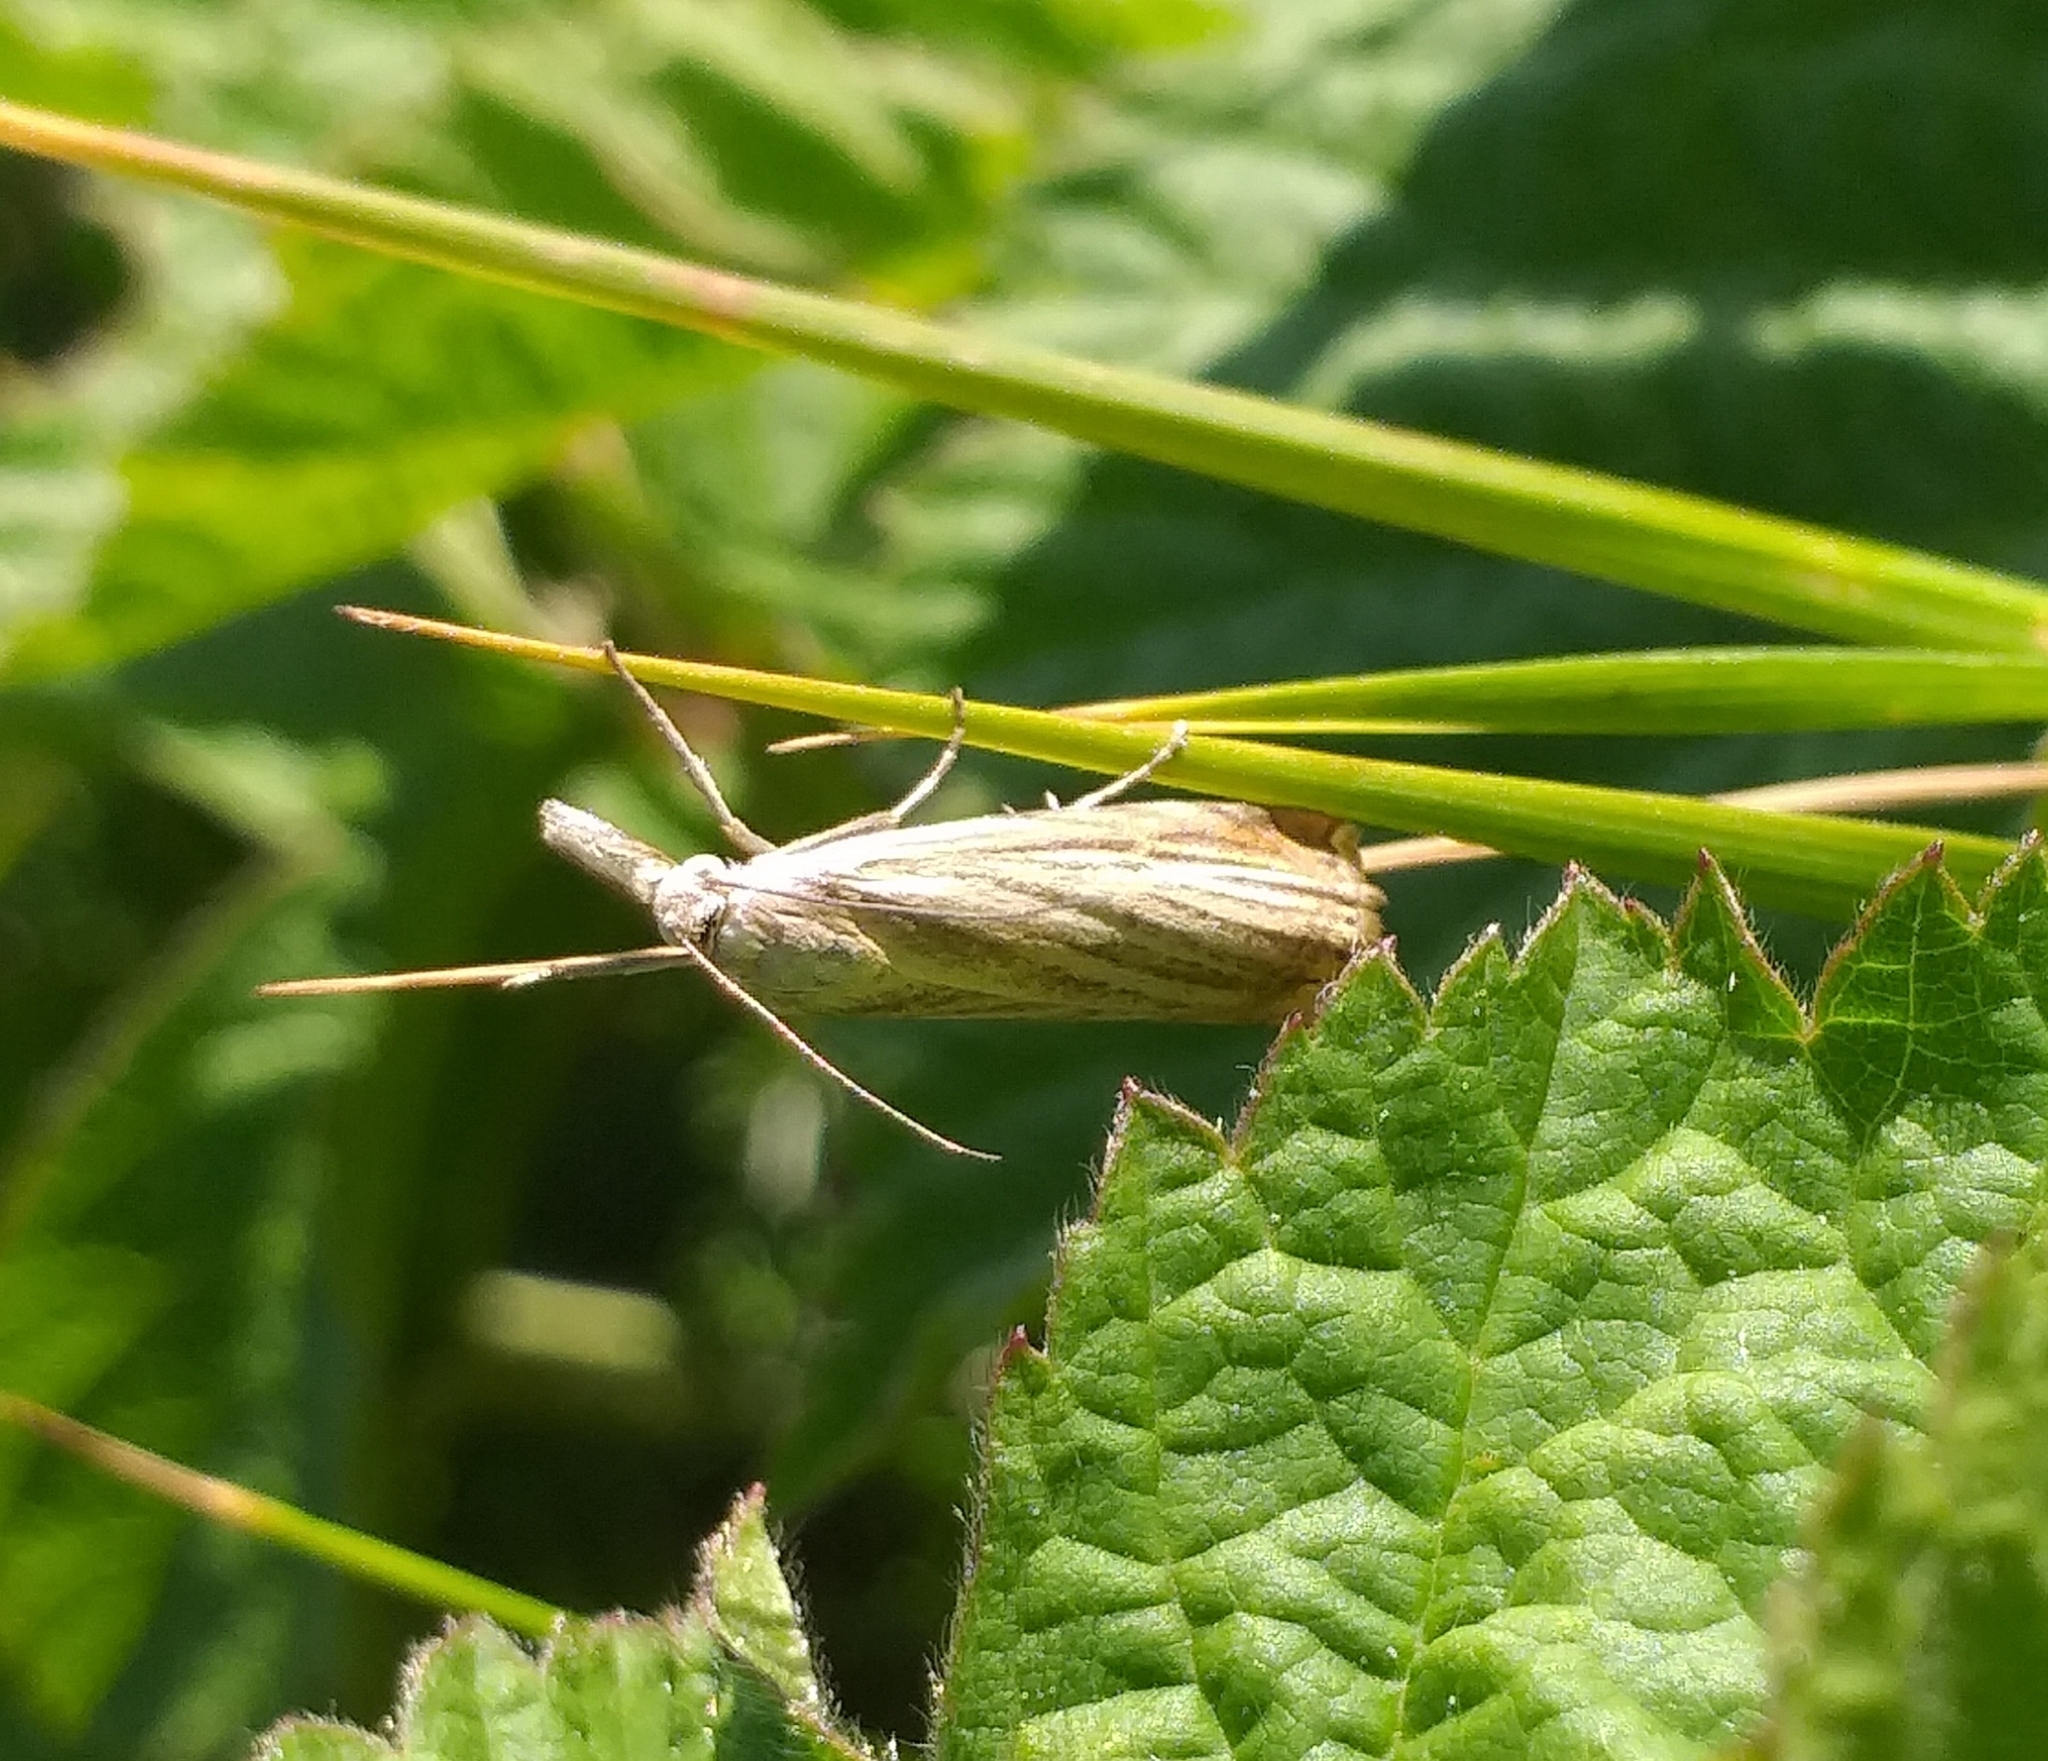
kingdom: Animalia
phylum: Arthropoda
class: Insecta
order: Lepidoptera
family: Crambidae
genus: Chrysoteuchia
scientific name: Chrysoteuchia culmella
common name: Garden grass-veneer
